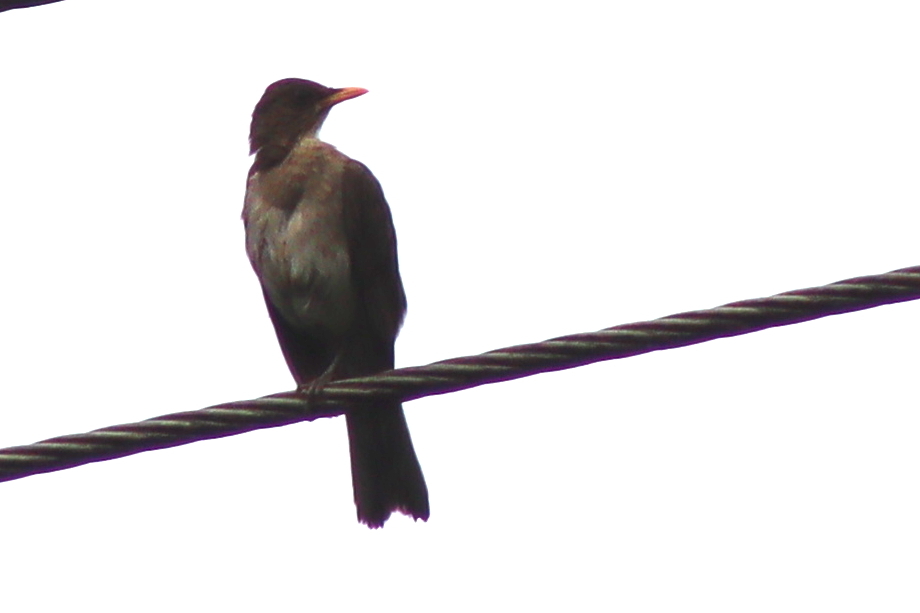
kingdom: Animalia
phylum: Chordata
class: Aves
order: Passeriformes
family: Turdidae
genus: Turdus
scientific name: Turdus amaurochalinus
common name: Creamy-bellied thrush
